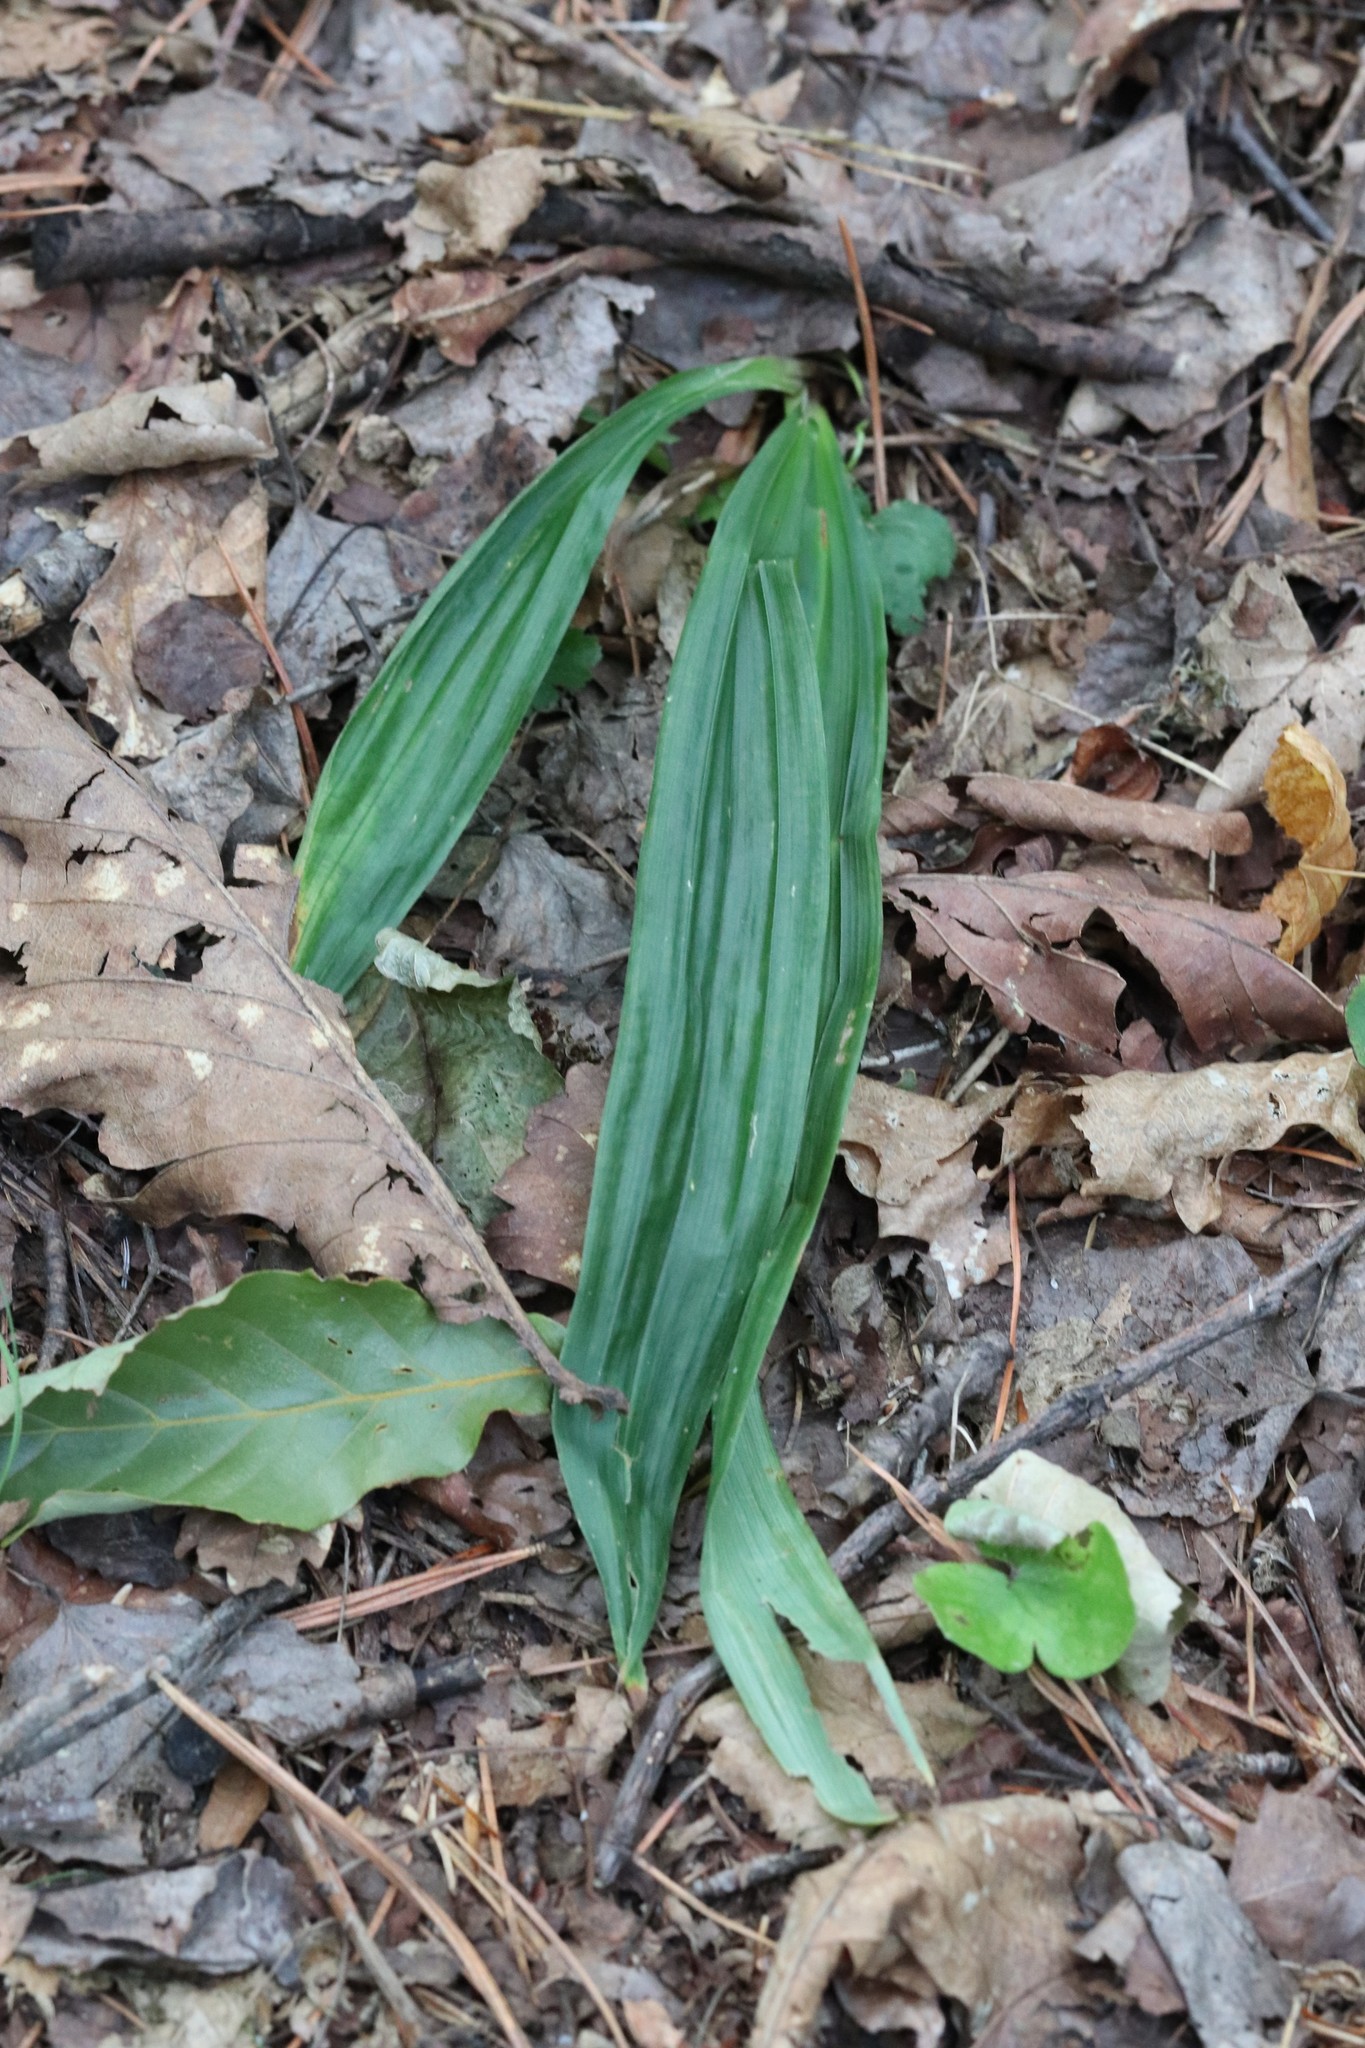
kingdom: Plantae
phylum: Tracheophyta
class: Liliopsida
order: Poales
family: Cyperaceae
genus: Carex
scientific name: Carex siderosticta
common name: Broadleaf sedge
